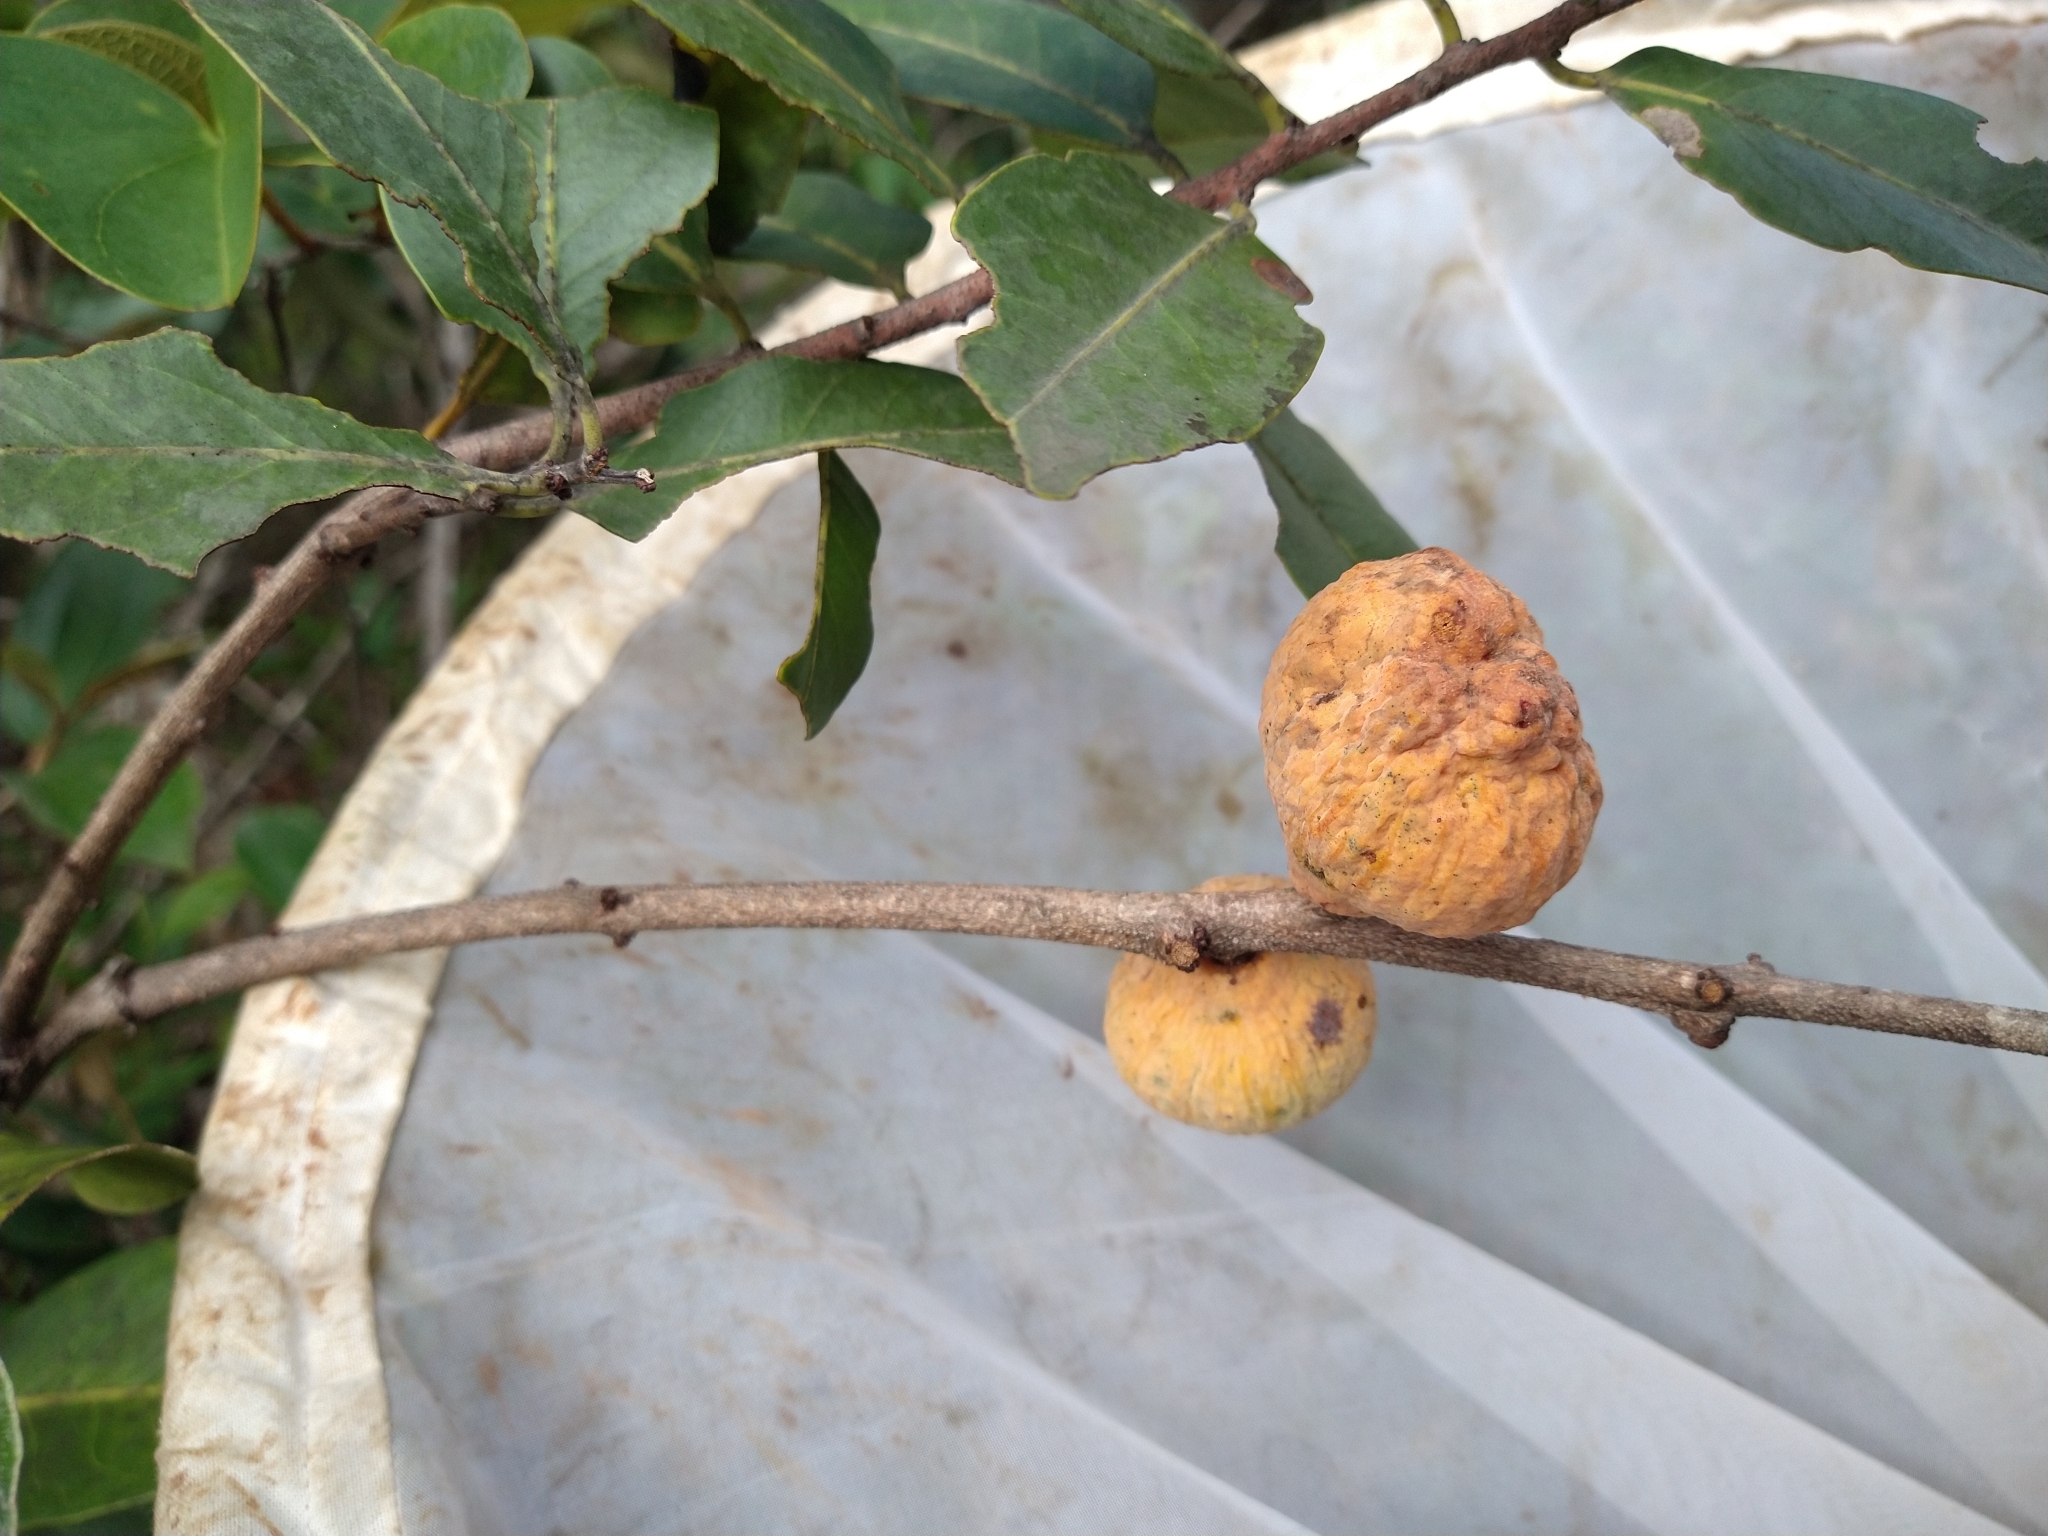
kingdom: Plantae
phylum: Tracheophyta
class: Magnoliopsida
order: Celastrales
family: Celastraceae
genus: Salacia
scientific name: Salacia crassifolia
